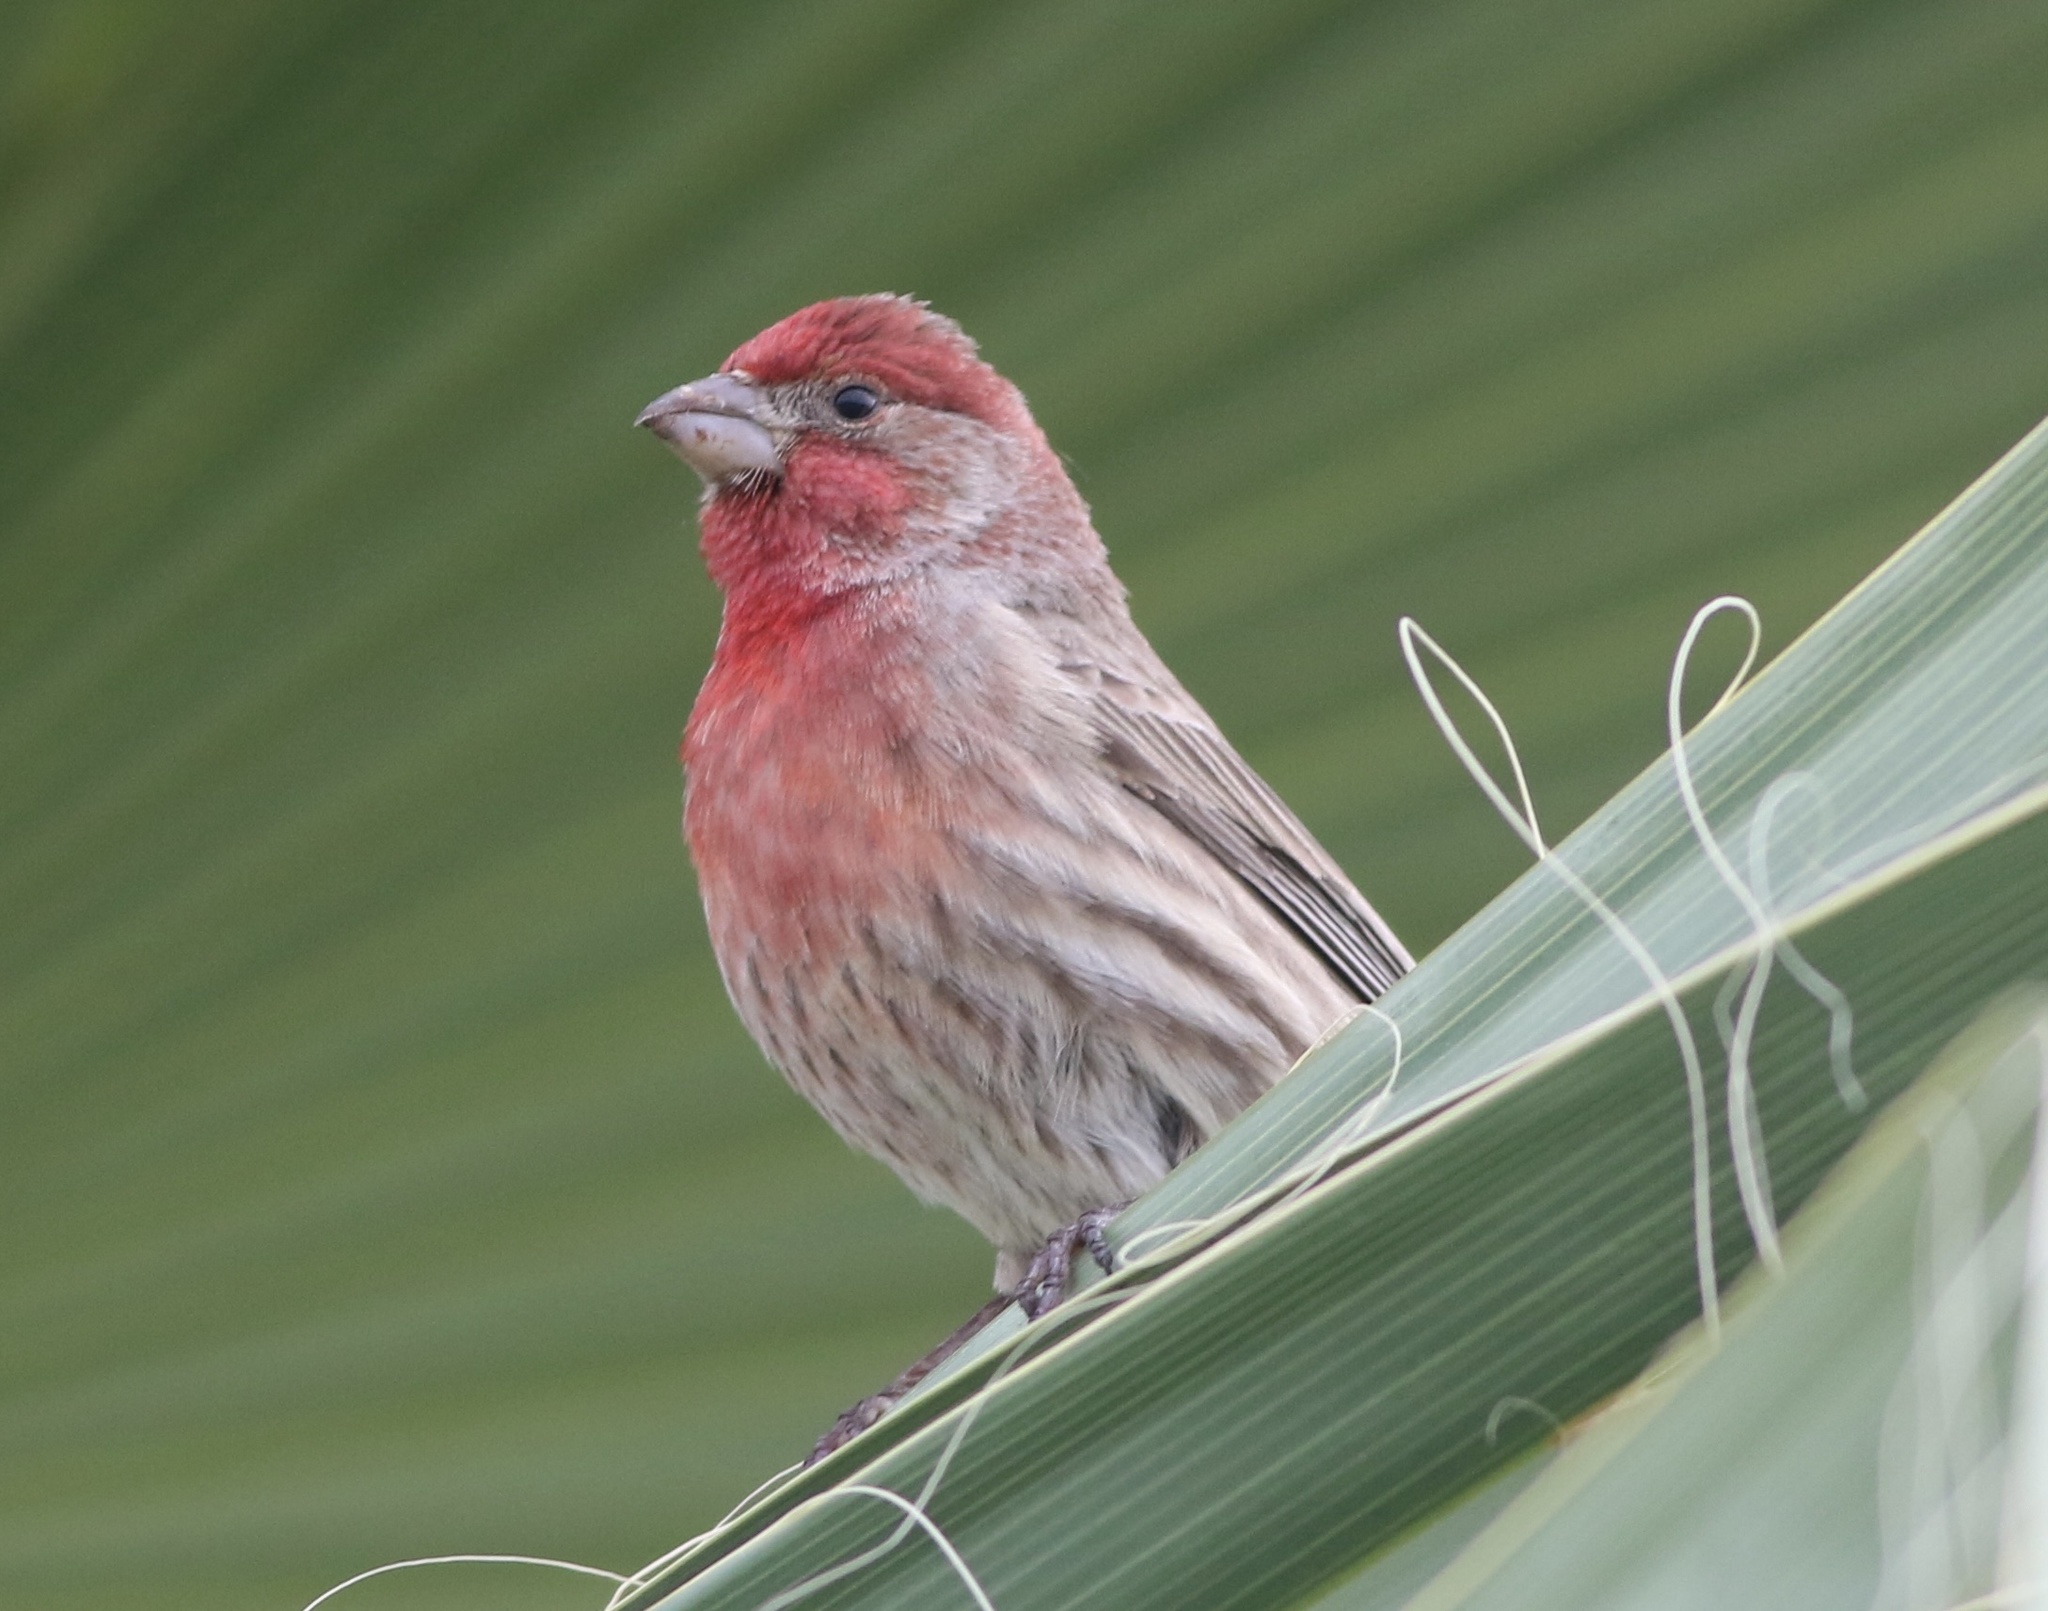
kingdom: Animalia
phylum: Chordata
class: Aves
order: Passeriformes
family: Fringillidae
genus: Haemorhous
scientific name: Haemorhous mexicanus
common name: House finch
